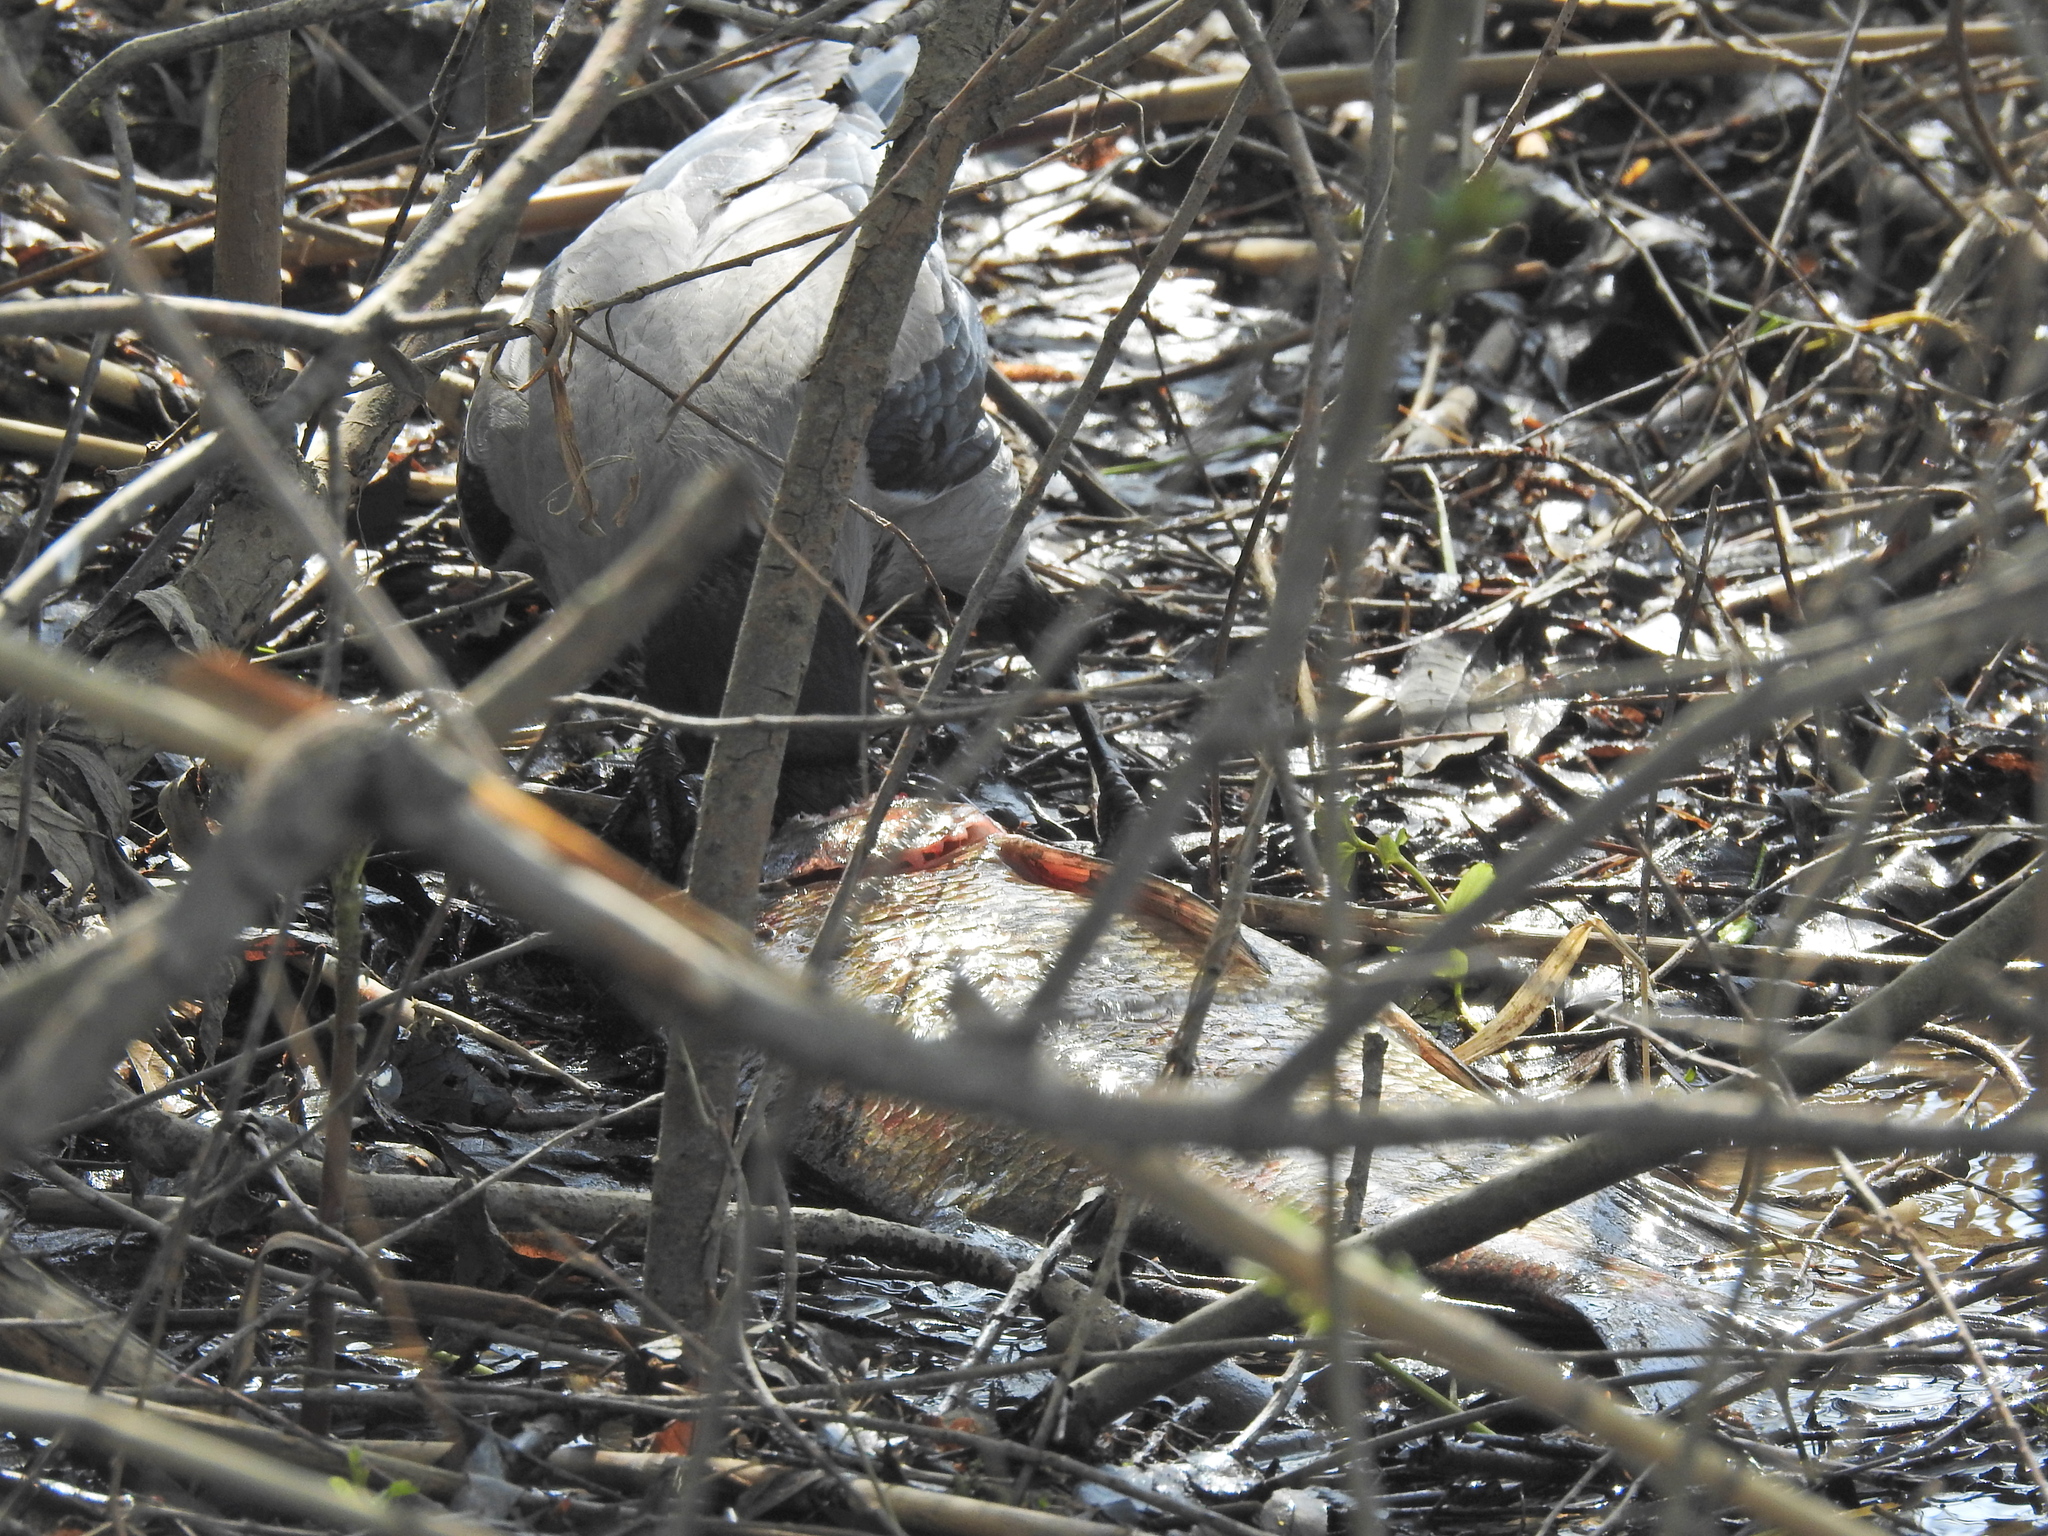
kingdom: Animalia
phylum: Chordata
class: Aves
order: Passeriformes
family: Corvidae
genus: Corvus
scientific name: Corvus cornix
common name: Hooded crow
